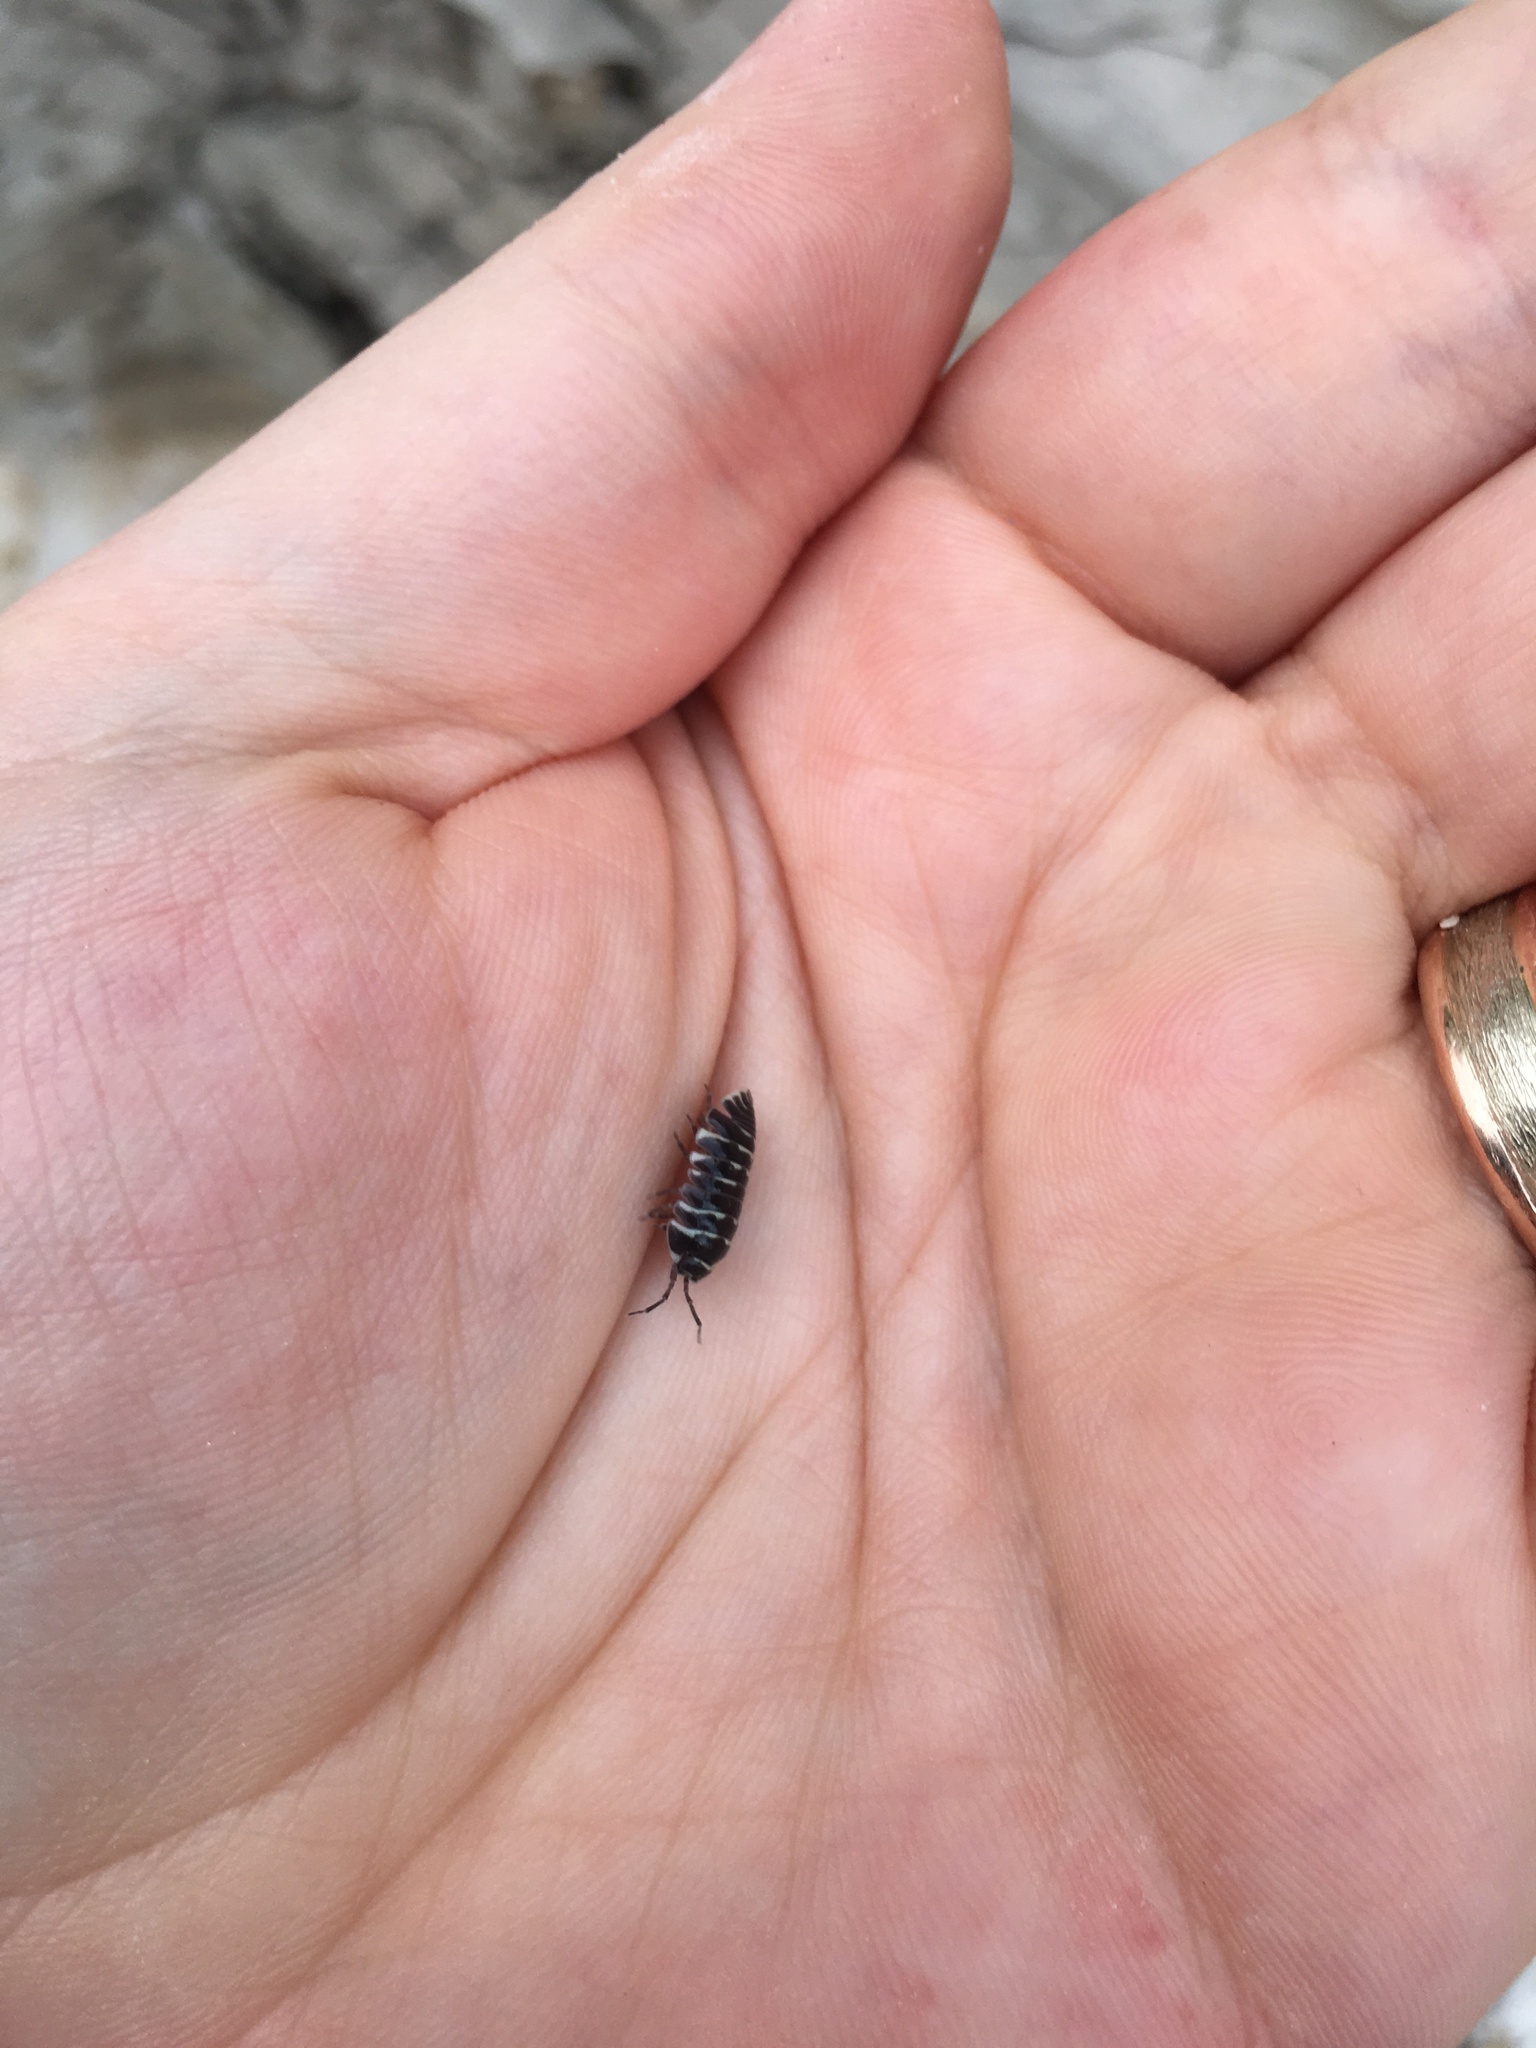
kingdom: Animalia
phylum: Arthropoda
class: Malacostraca
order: Isopoda
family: Armadillidiidae
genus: Armadillidium
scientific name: Armadillidium maculatum
